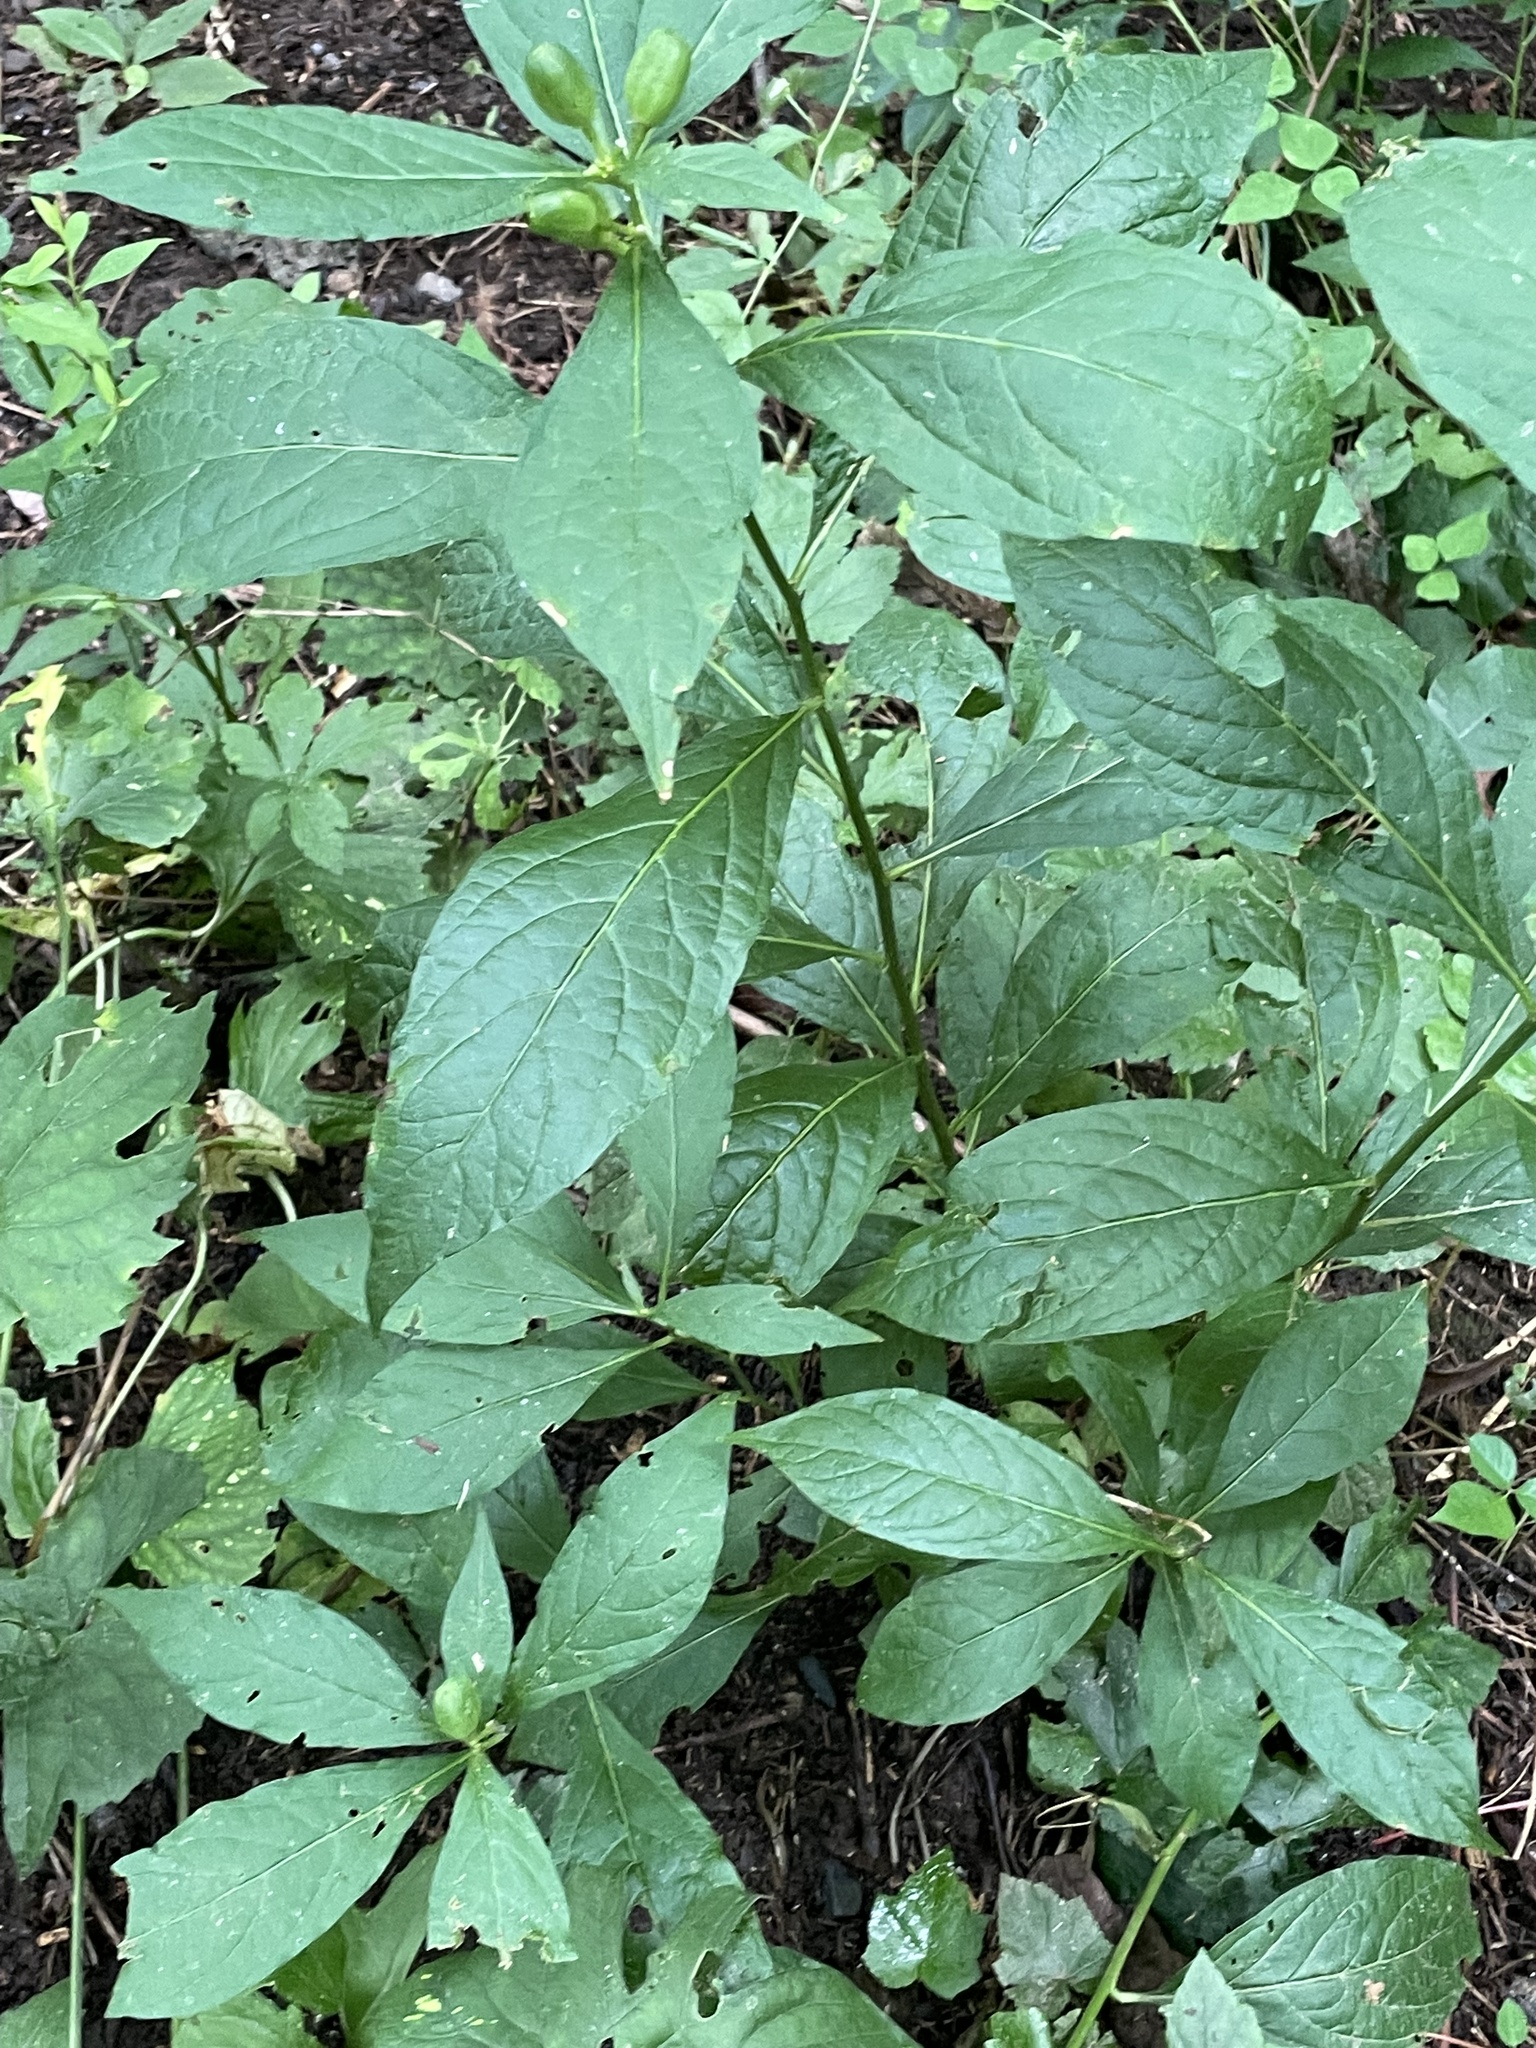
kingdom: Plantae
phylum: Tracheophyta
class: Magnoliopsida
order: Malpighiales
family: Violaceae
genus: Cubelium
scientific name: Cubelium concolor
